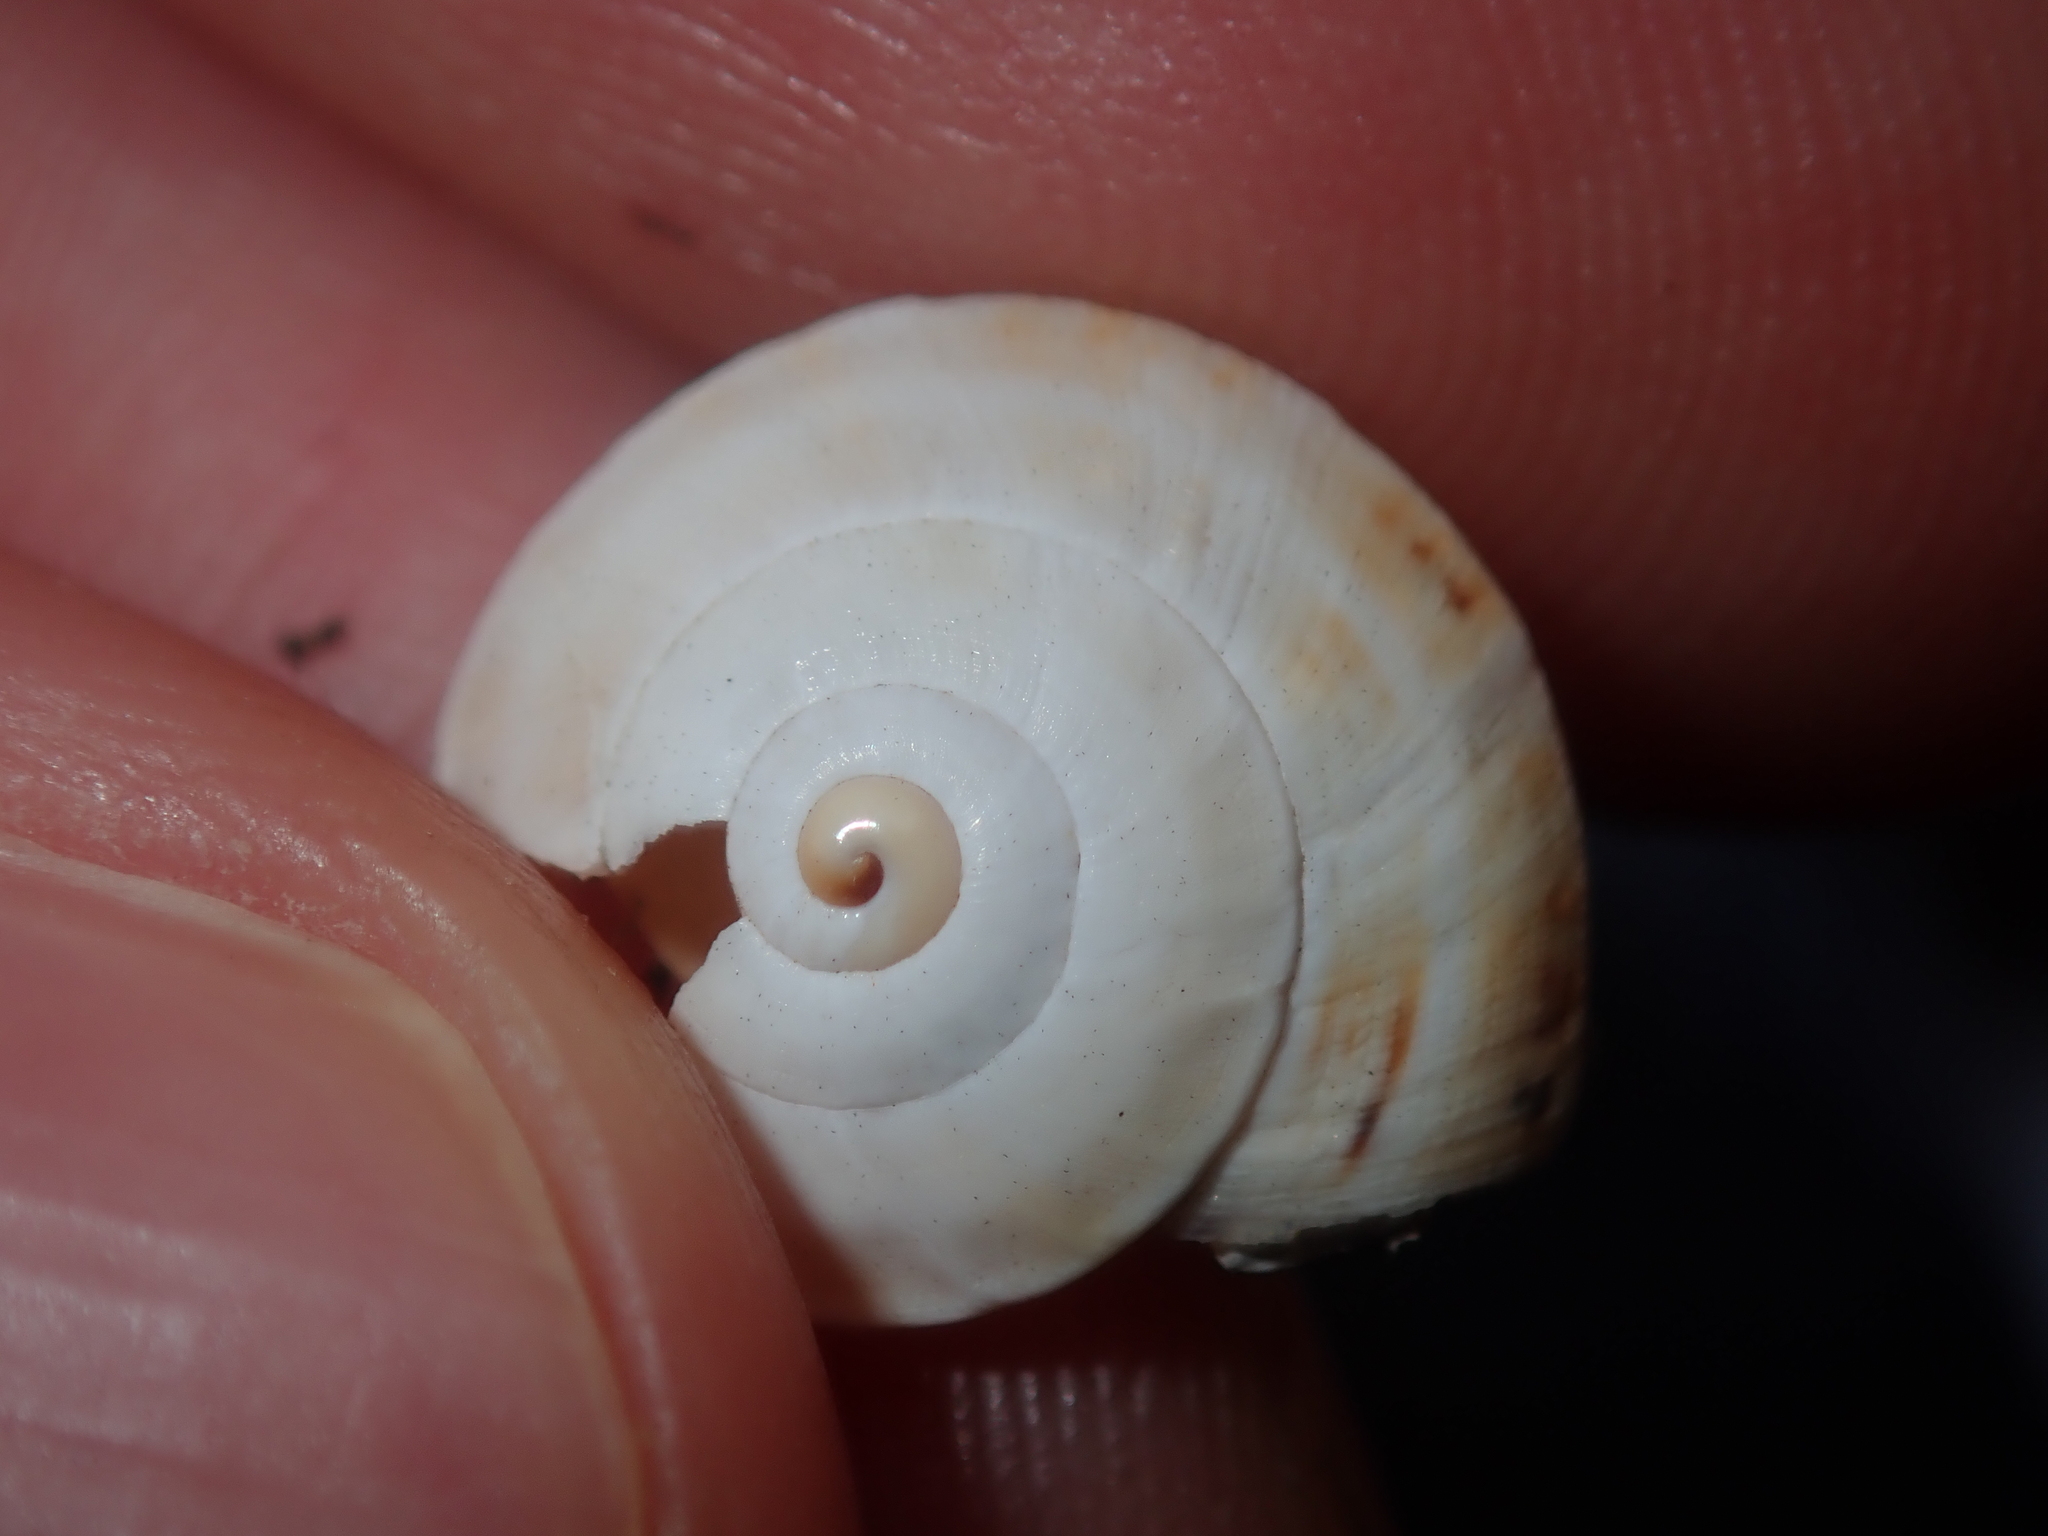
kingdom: Animalia
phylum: Mollusca
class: Gastropoda
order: Stylommatophora
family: Helicidae
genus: Theba
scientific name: Theba pisana
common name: White snail
